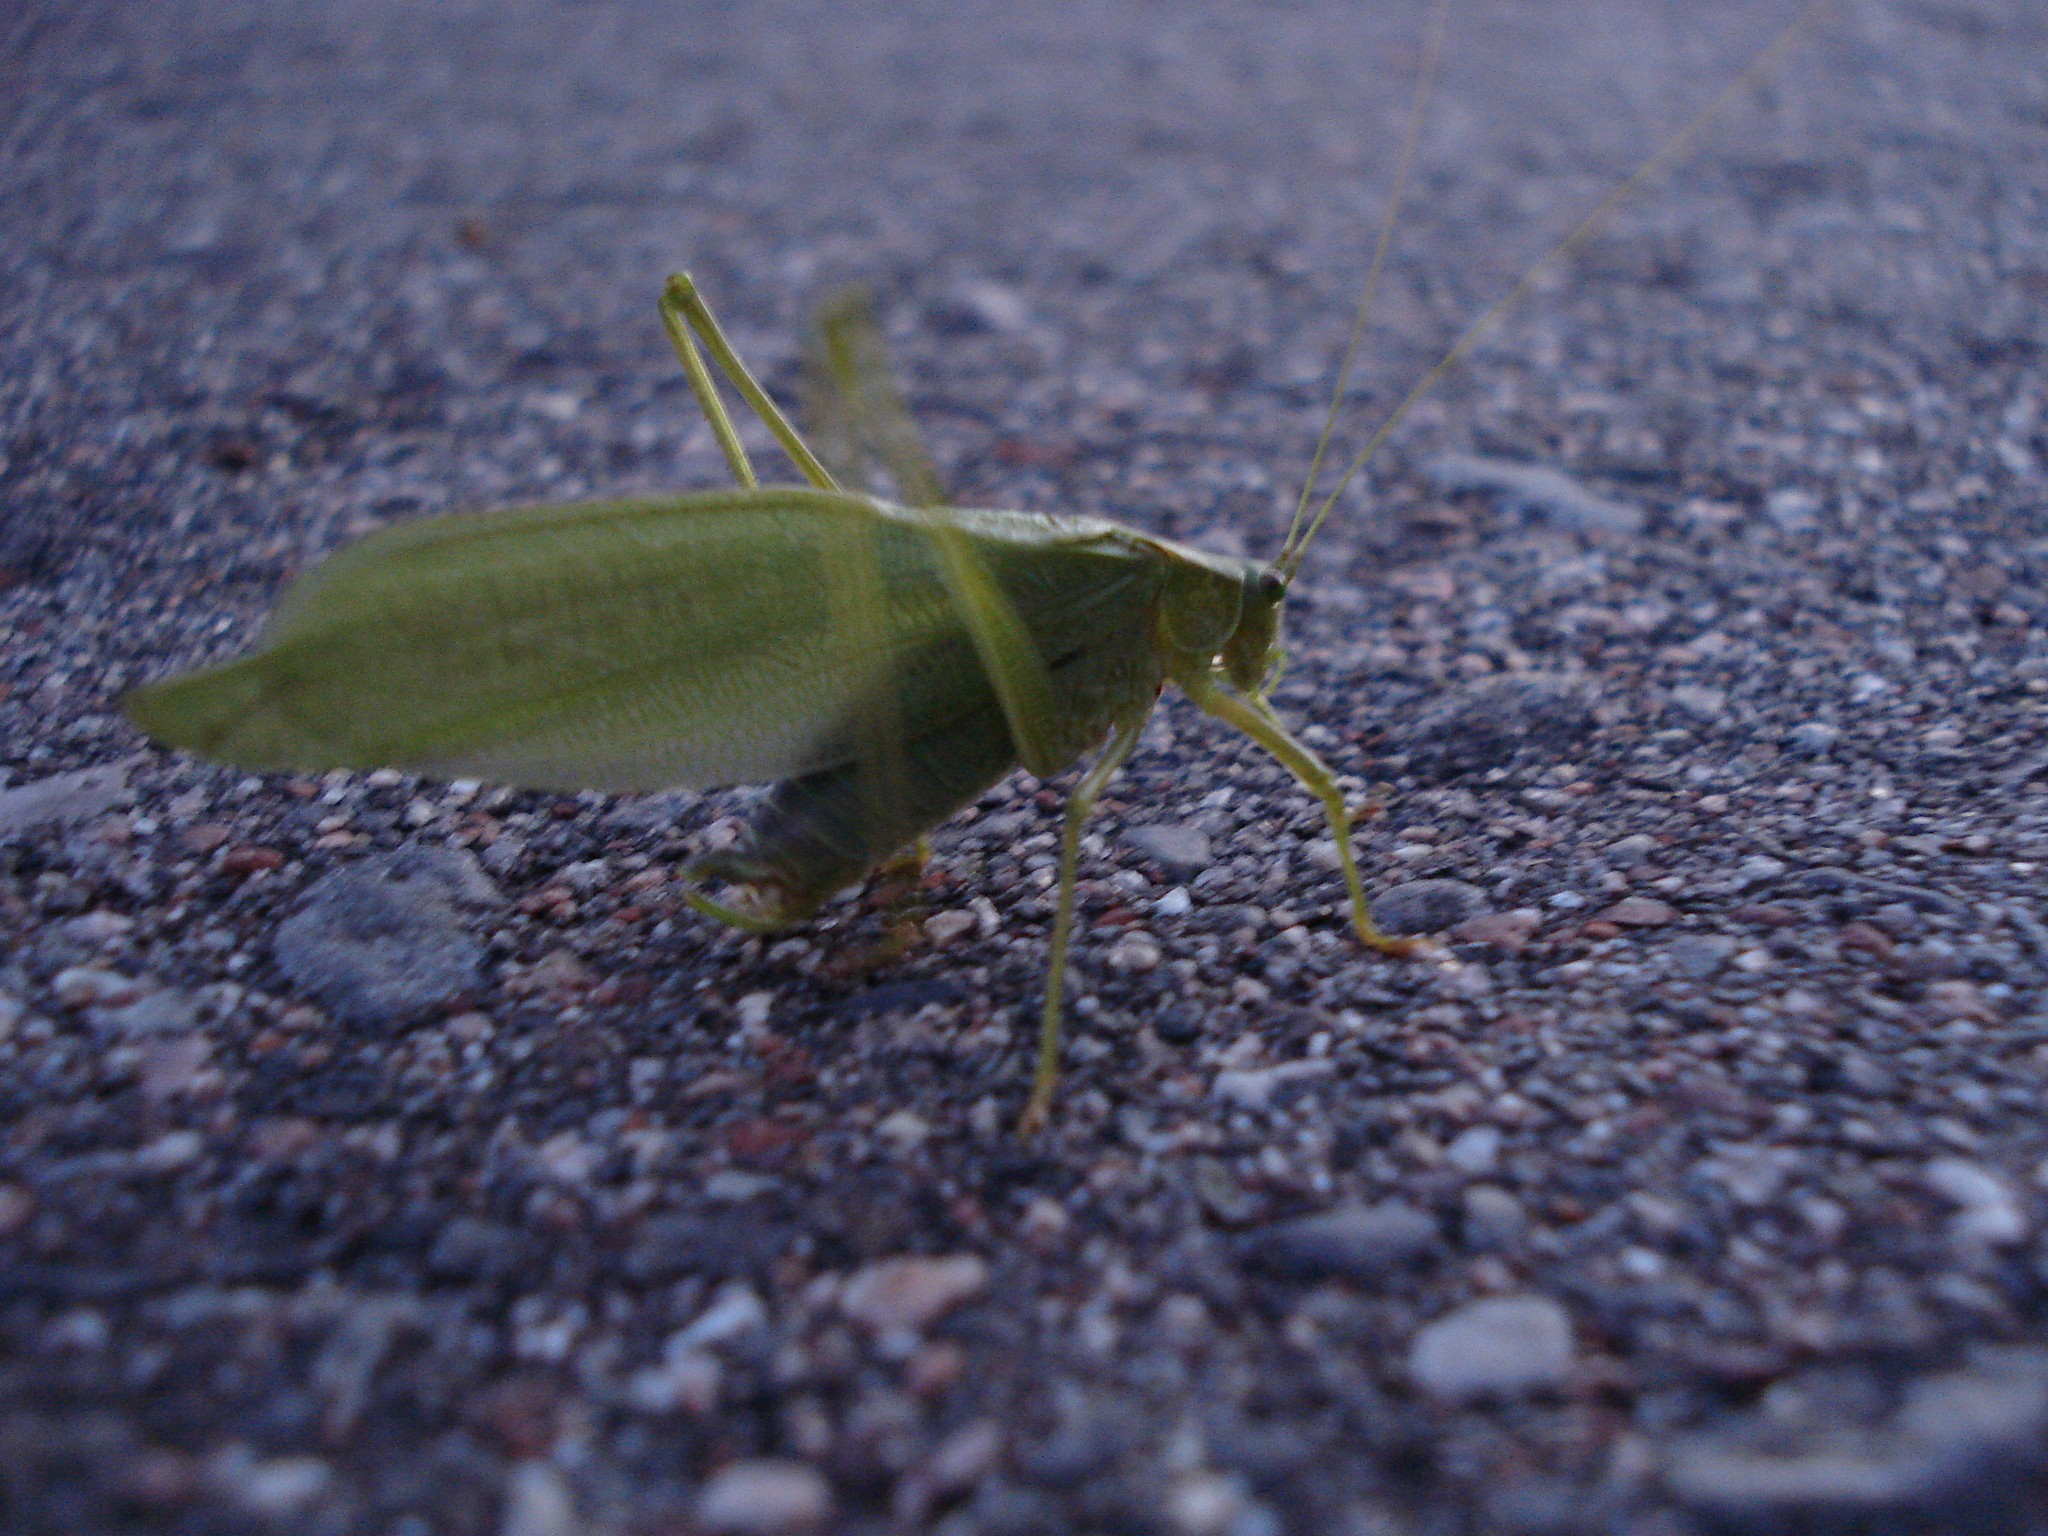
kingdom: Animalia
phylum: Arthropoda
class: Insecta
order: Orthoptera
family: Tettigoniidae
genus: Scudderia
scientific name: Scudderia pistillata
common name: Broad-winged bush-katydid
